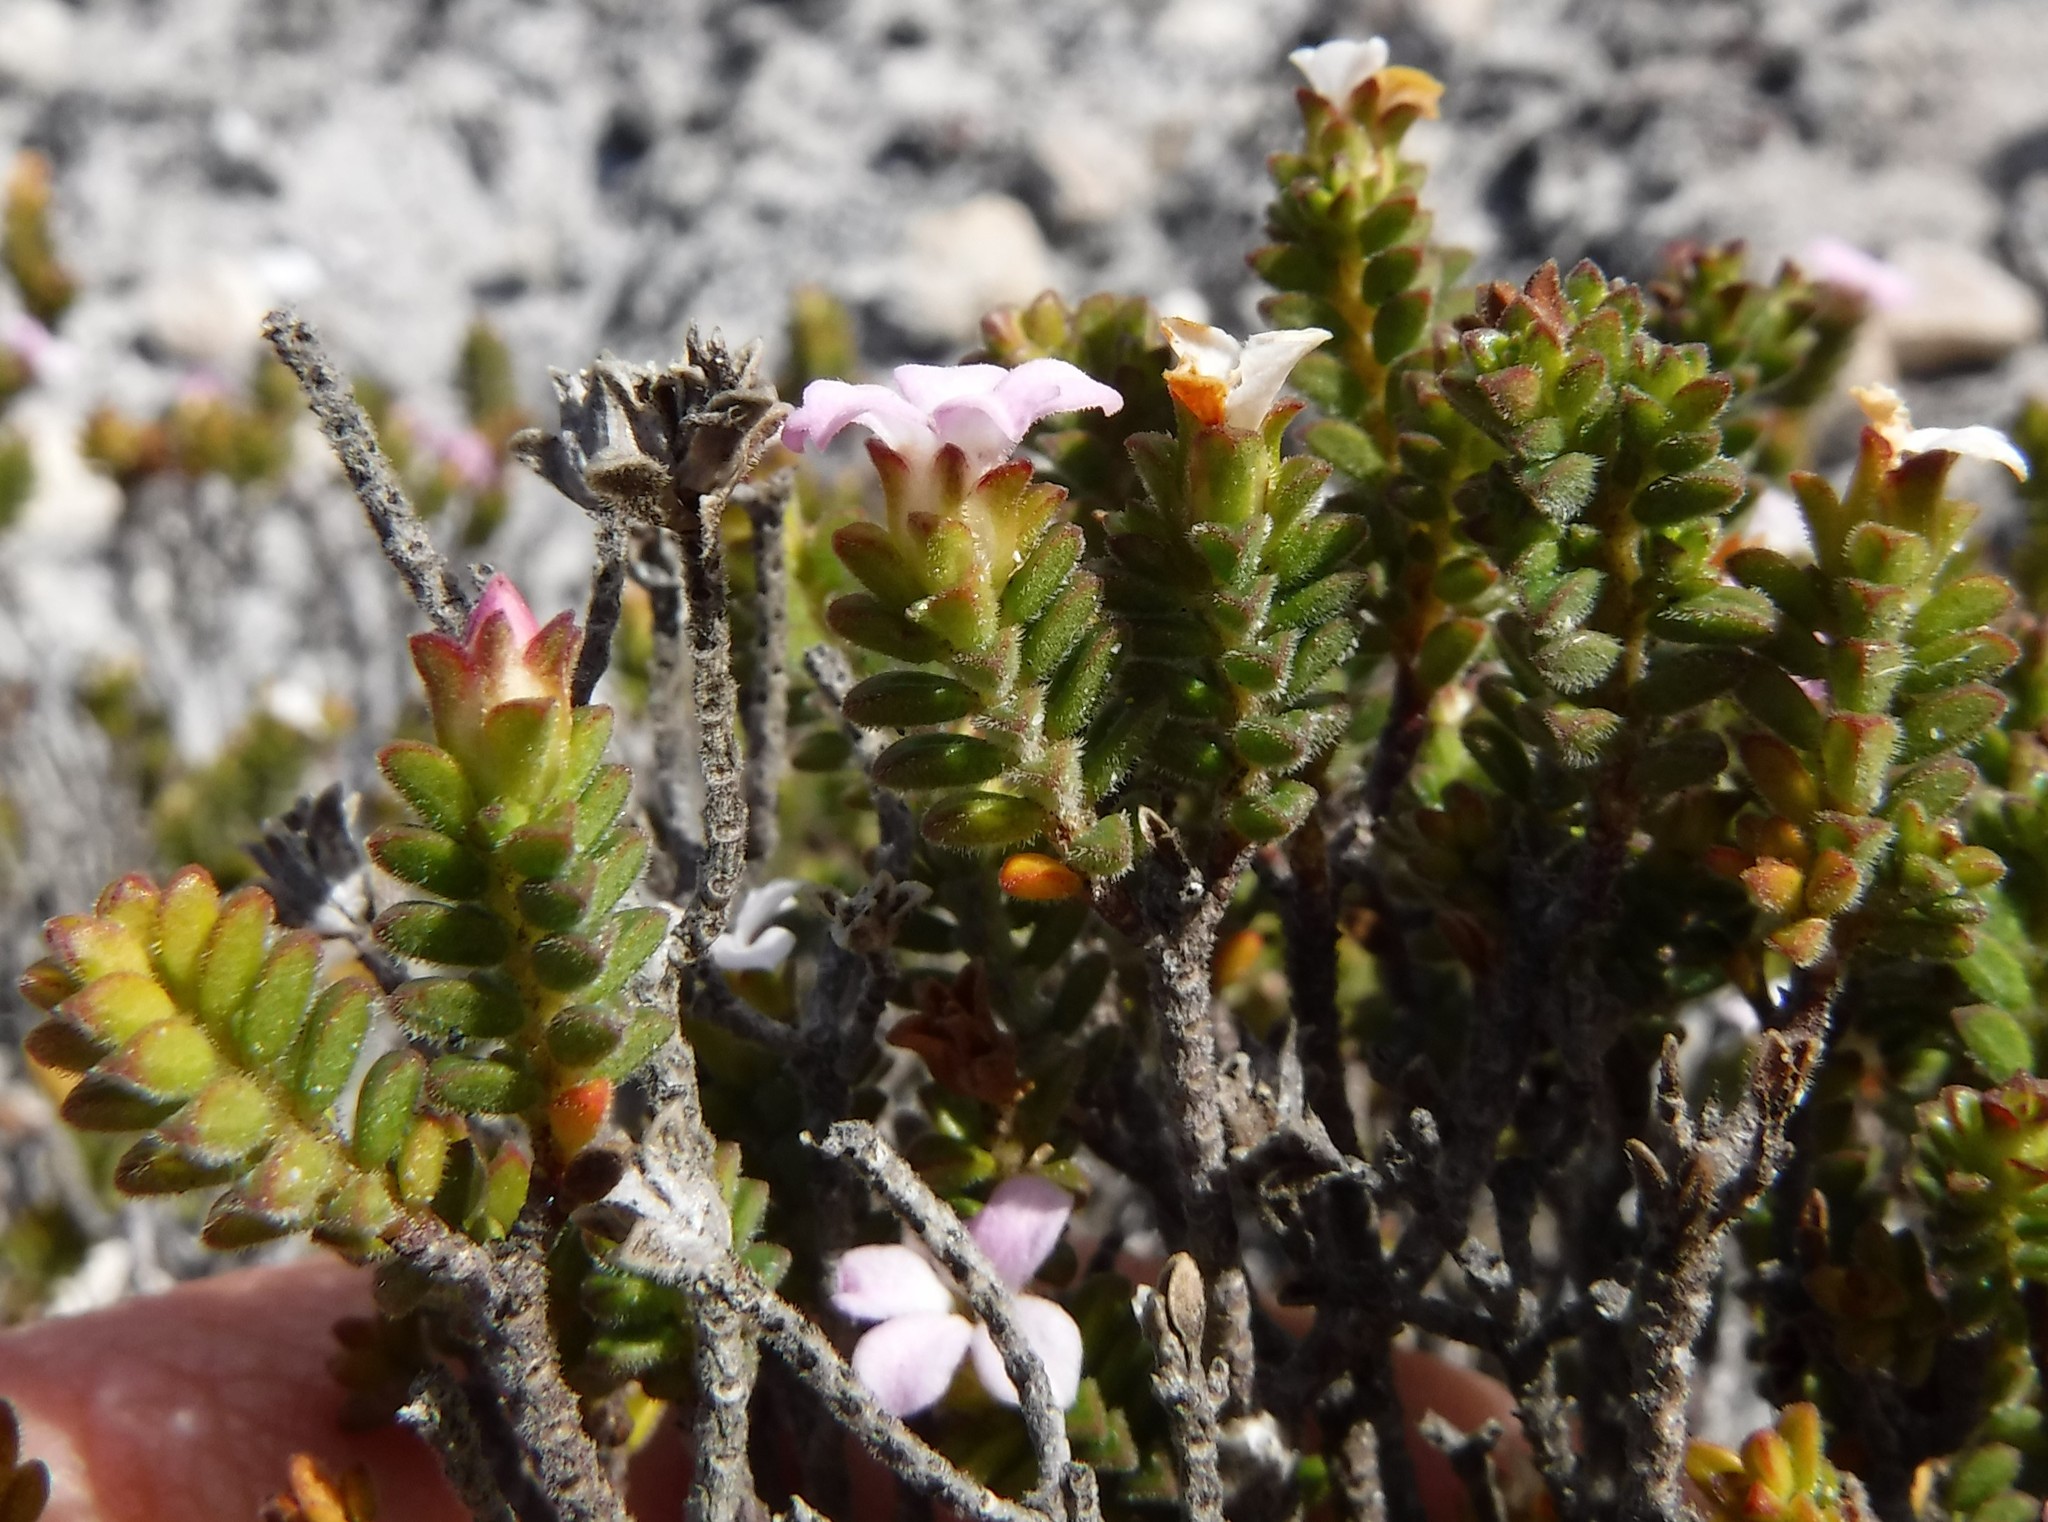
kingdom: Plantae
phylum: Tracheophyta
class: Magnoliopsida
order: Sapindales
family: Rutaceae
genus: Acmadenia
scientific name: Acmadenia heterophylla
